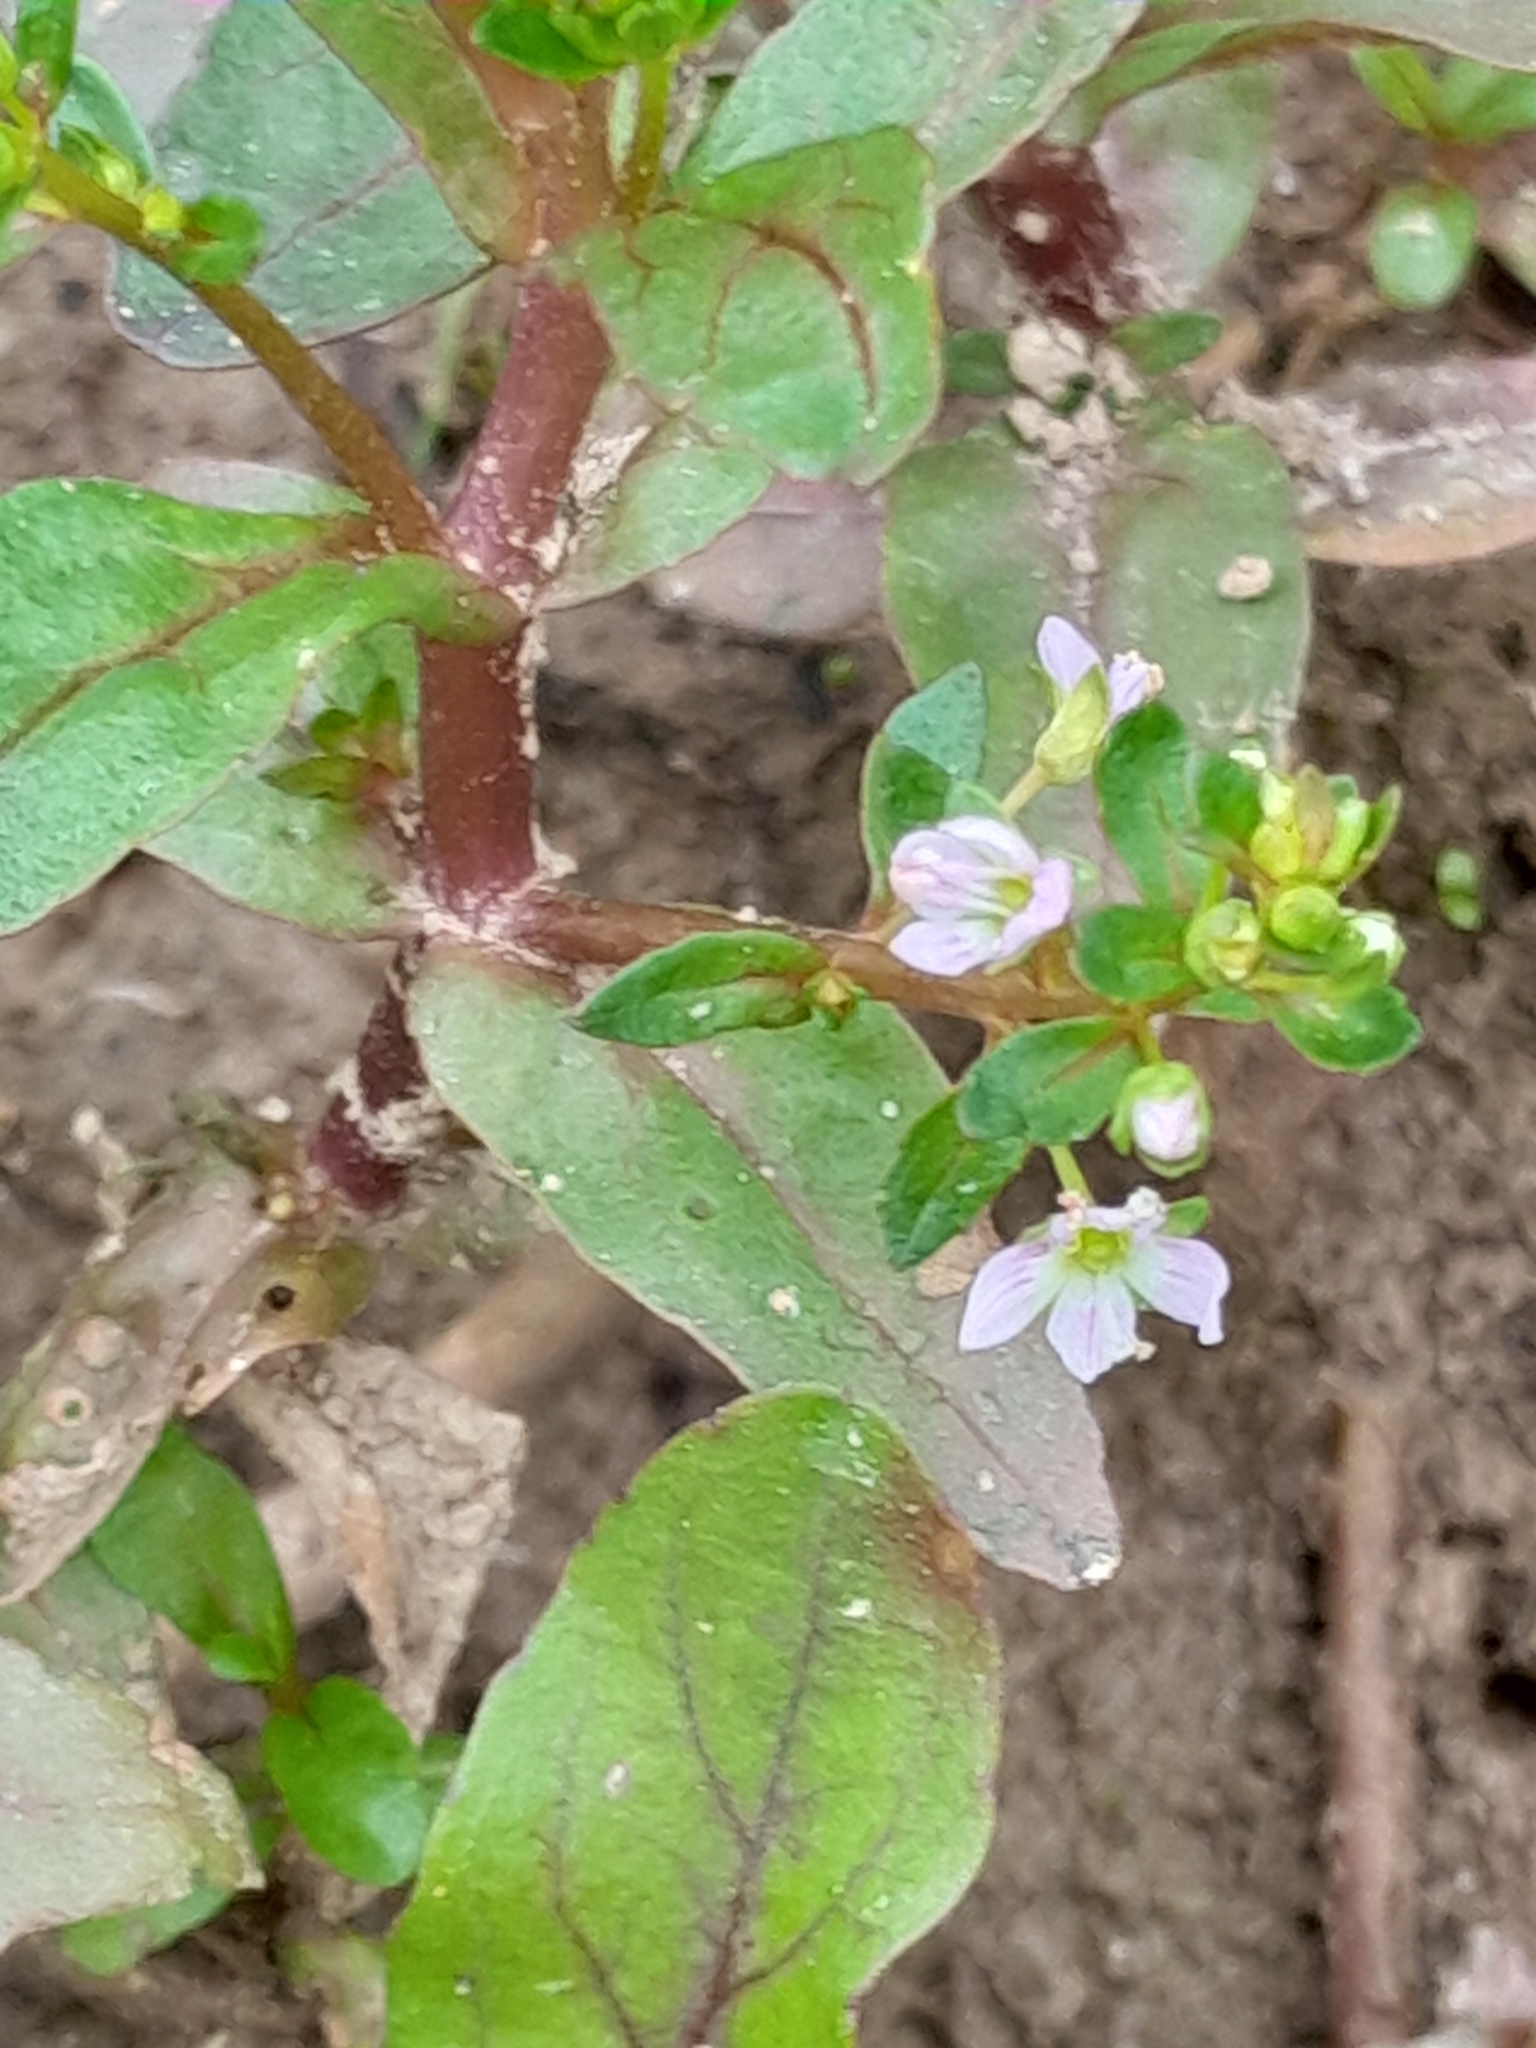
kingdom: Plantae
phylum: Tracheophyta
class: Magnoliopsida
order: Lamiales
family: Plantaginaceae
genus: Veronica
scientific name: Veronica catenata
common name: Pink water-speedwell
